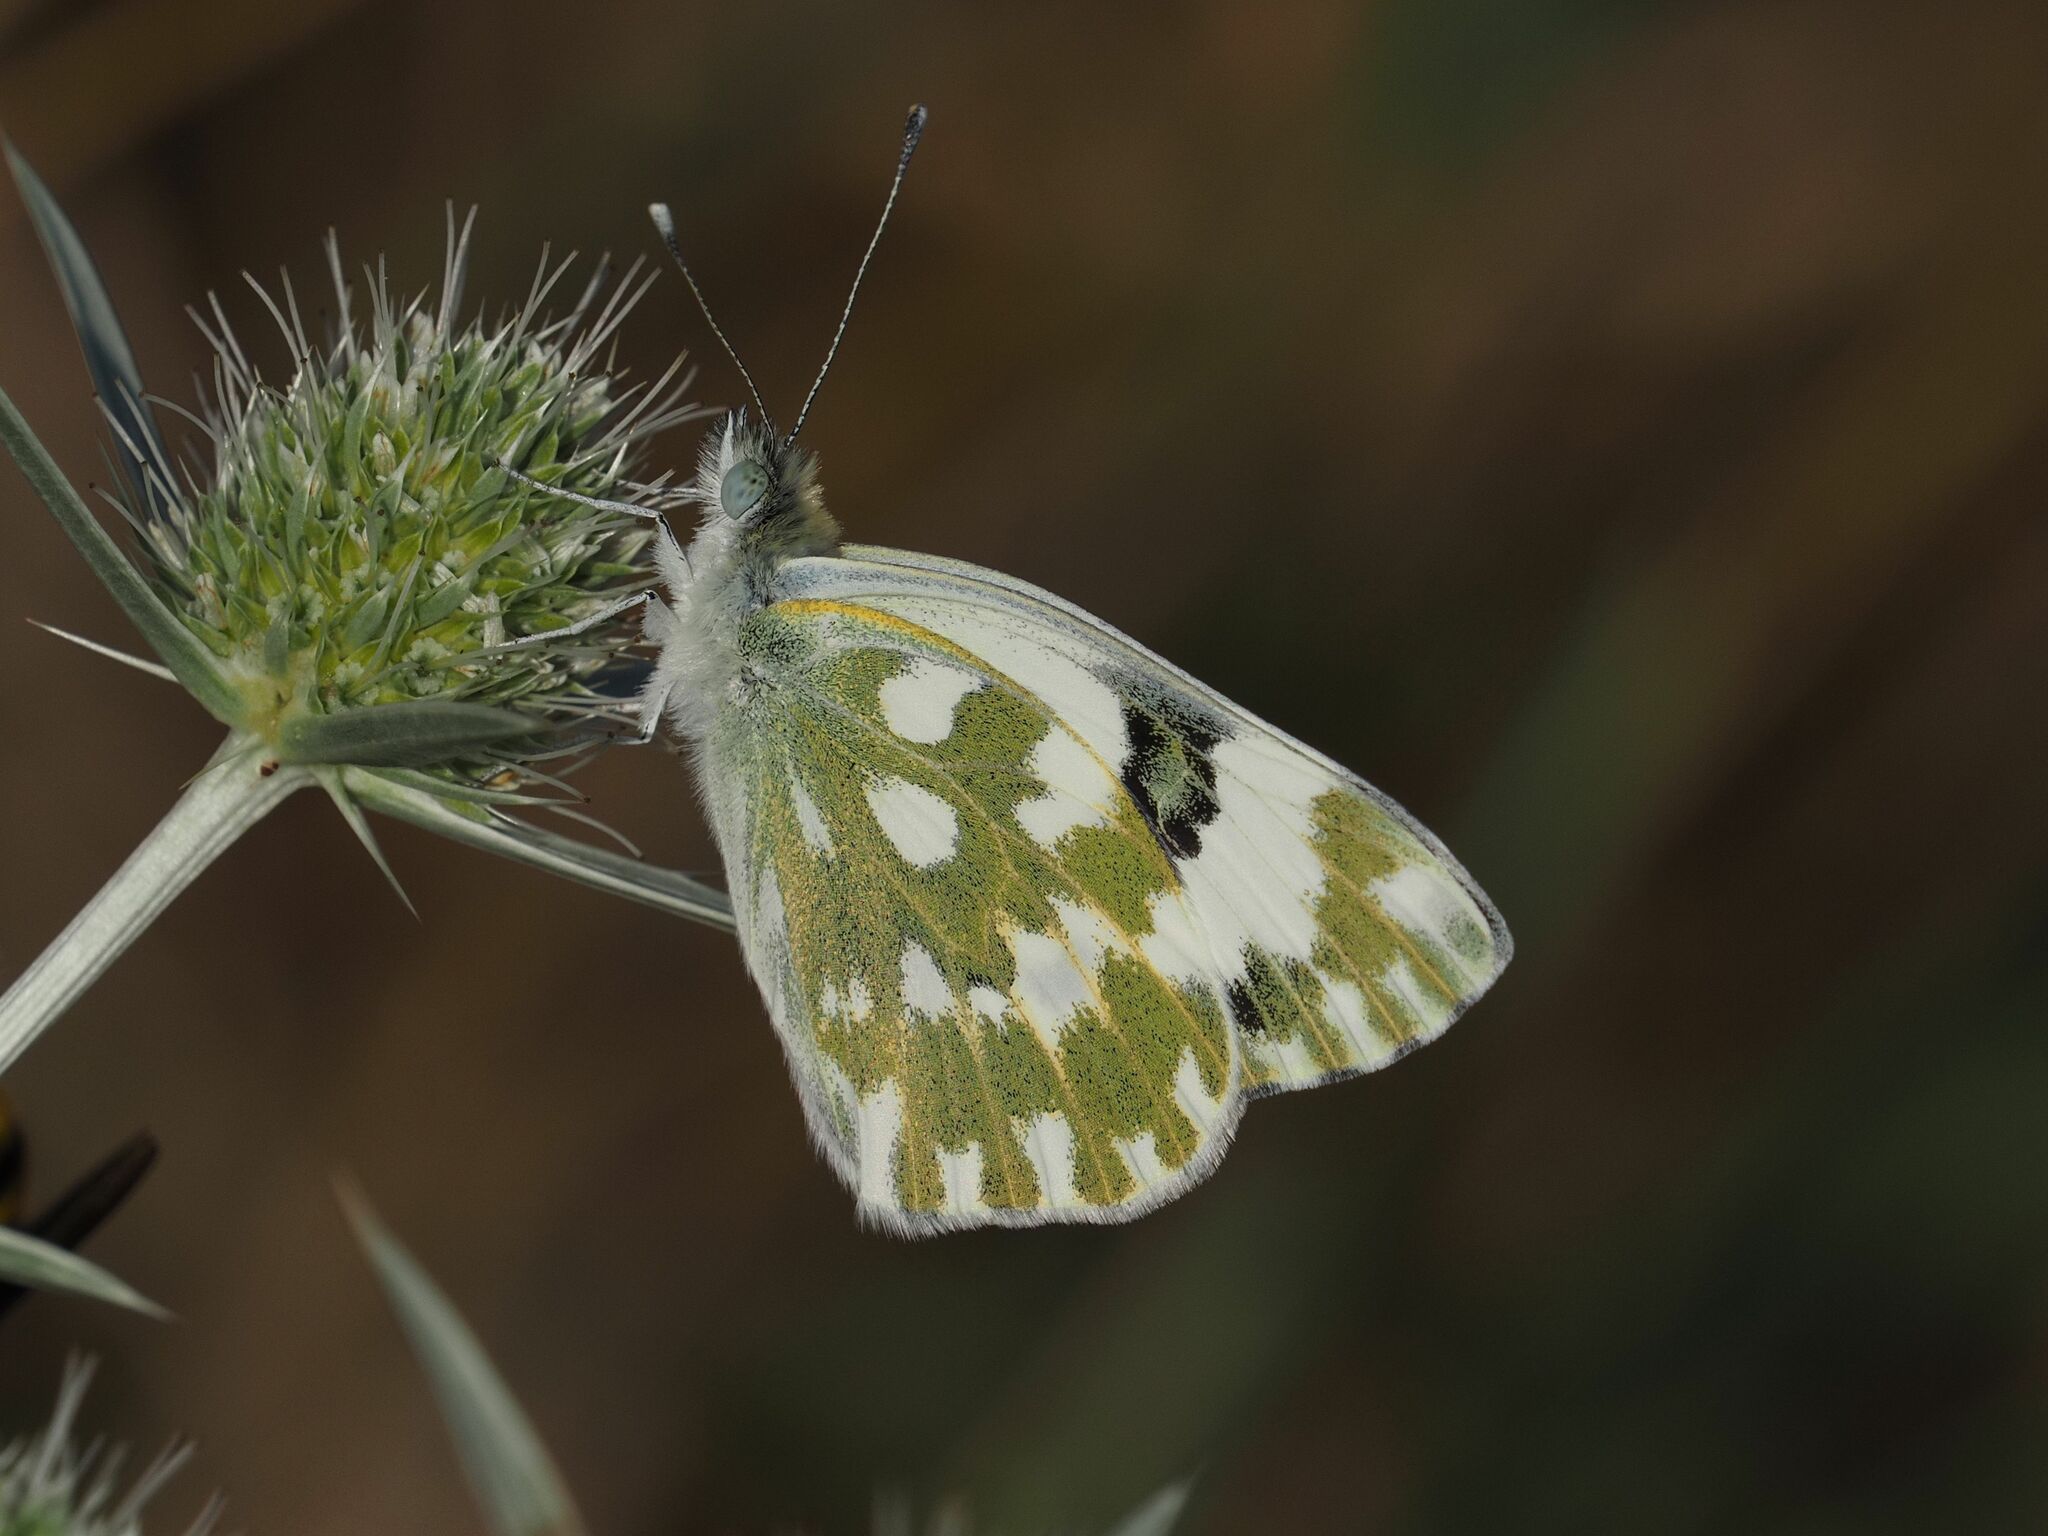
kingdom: Animalia
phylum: Arthropoda
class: Insecta
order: Lepidoptera
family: Pieridae
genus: Pontia
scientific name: Pontia edusa
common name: Eastern bath white
